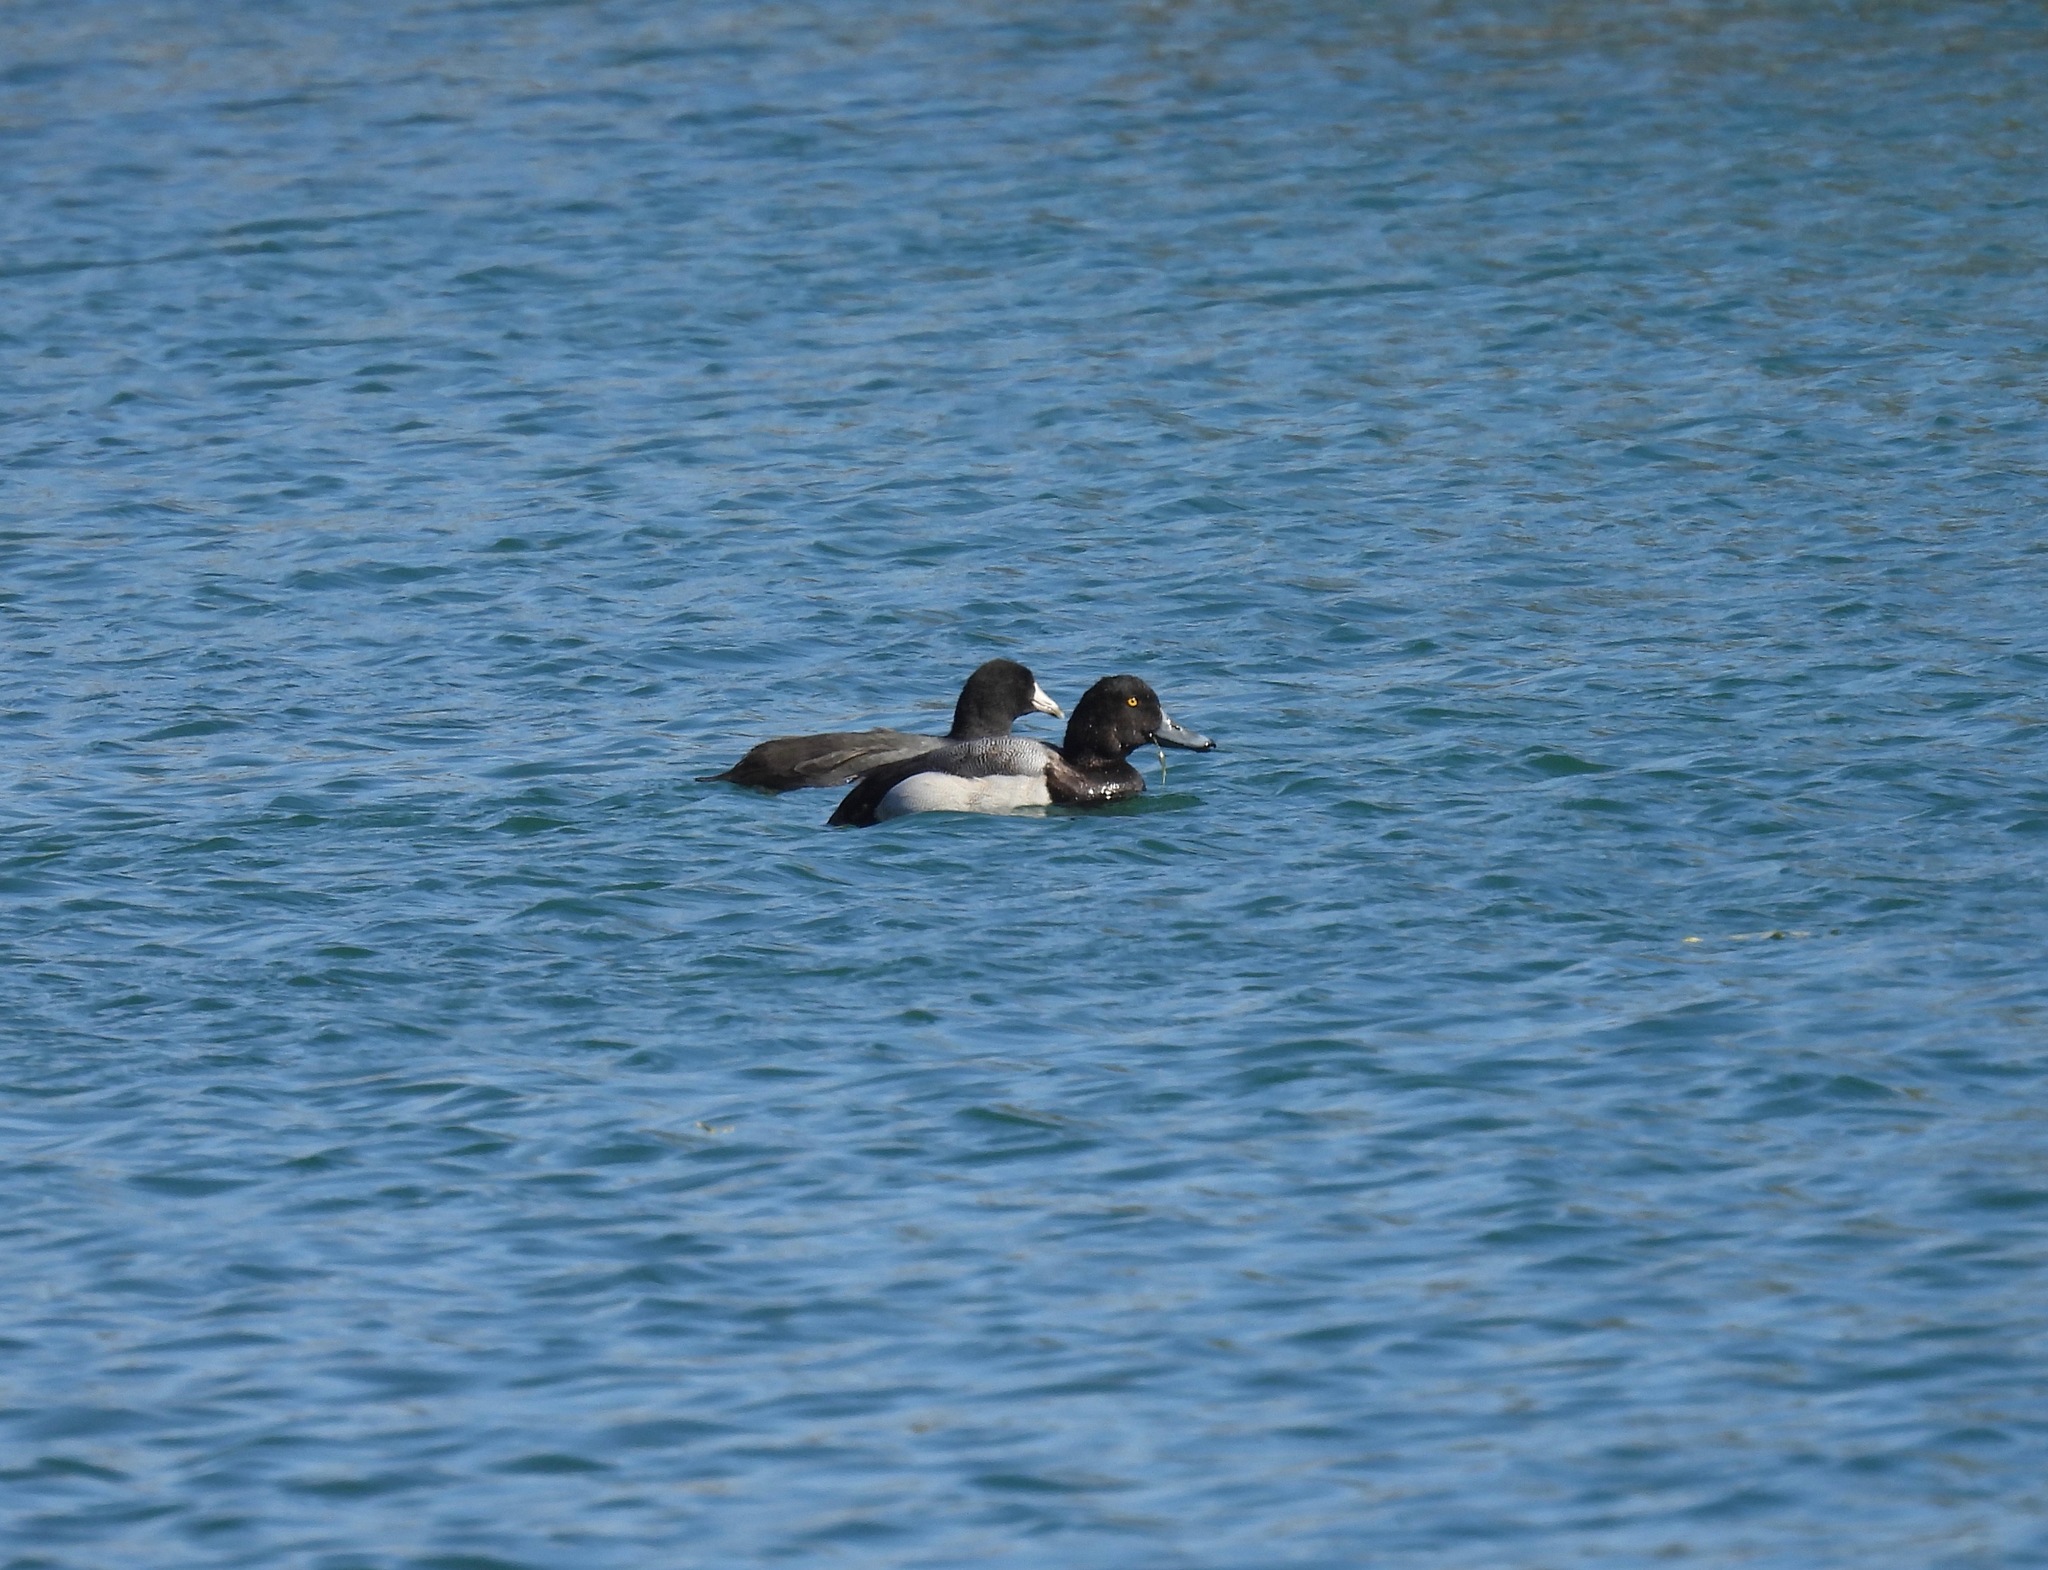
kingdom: Animalia
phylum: Chordata
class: Aves
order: Anseriformes
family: Anatidae
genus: Aythya
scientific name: Aythya marila
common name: Greater scaup
